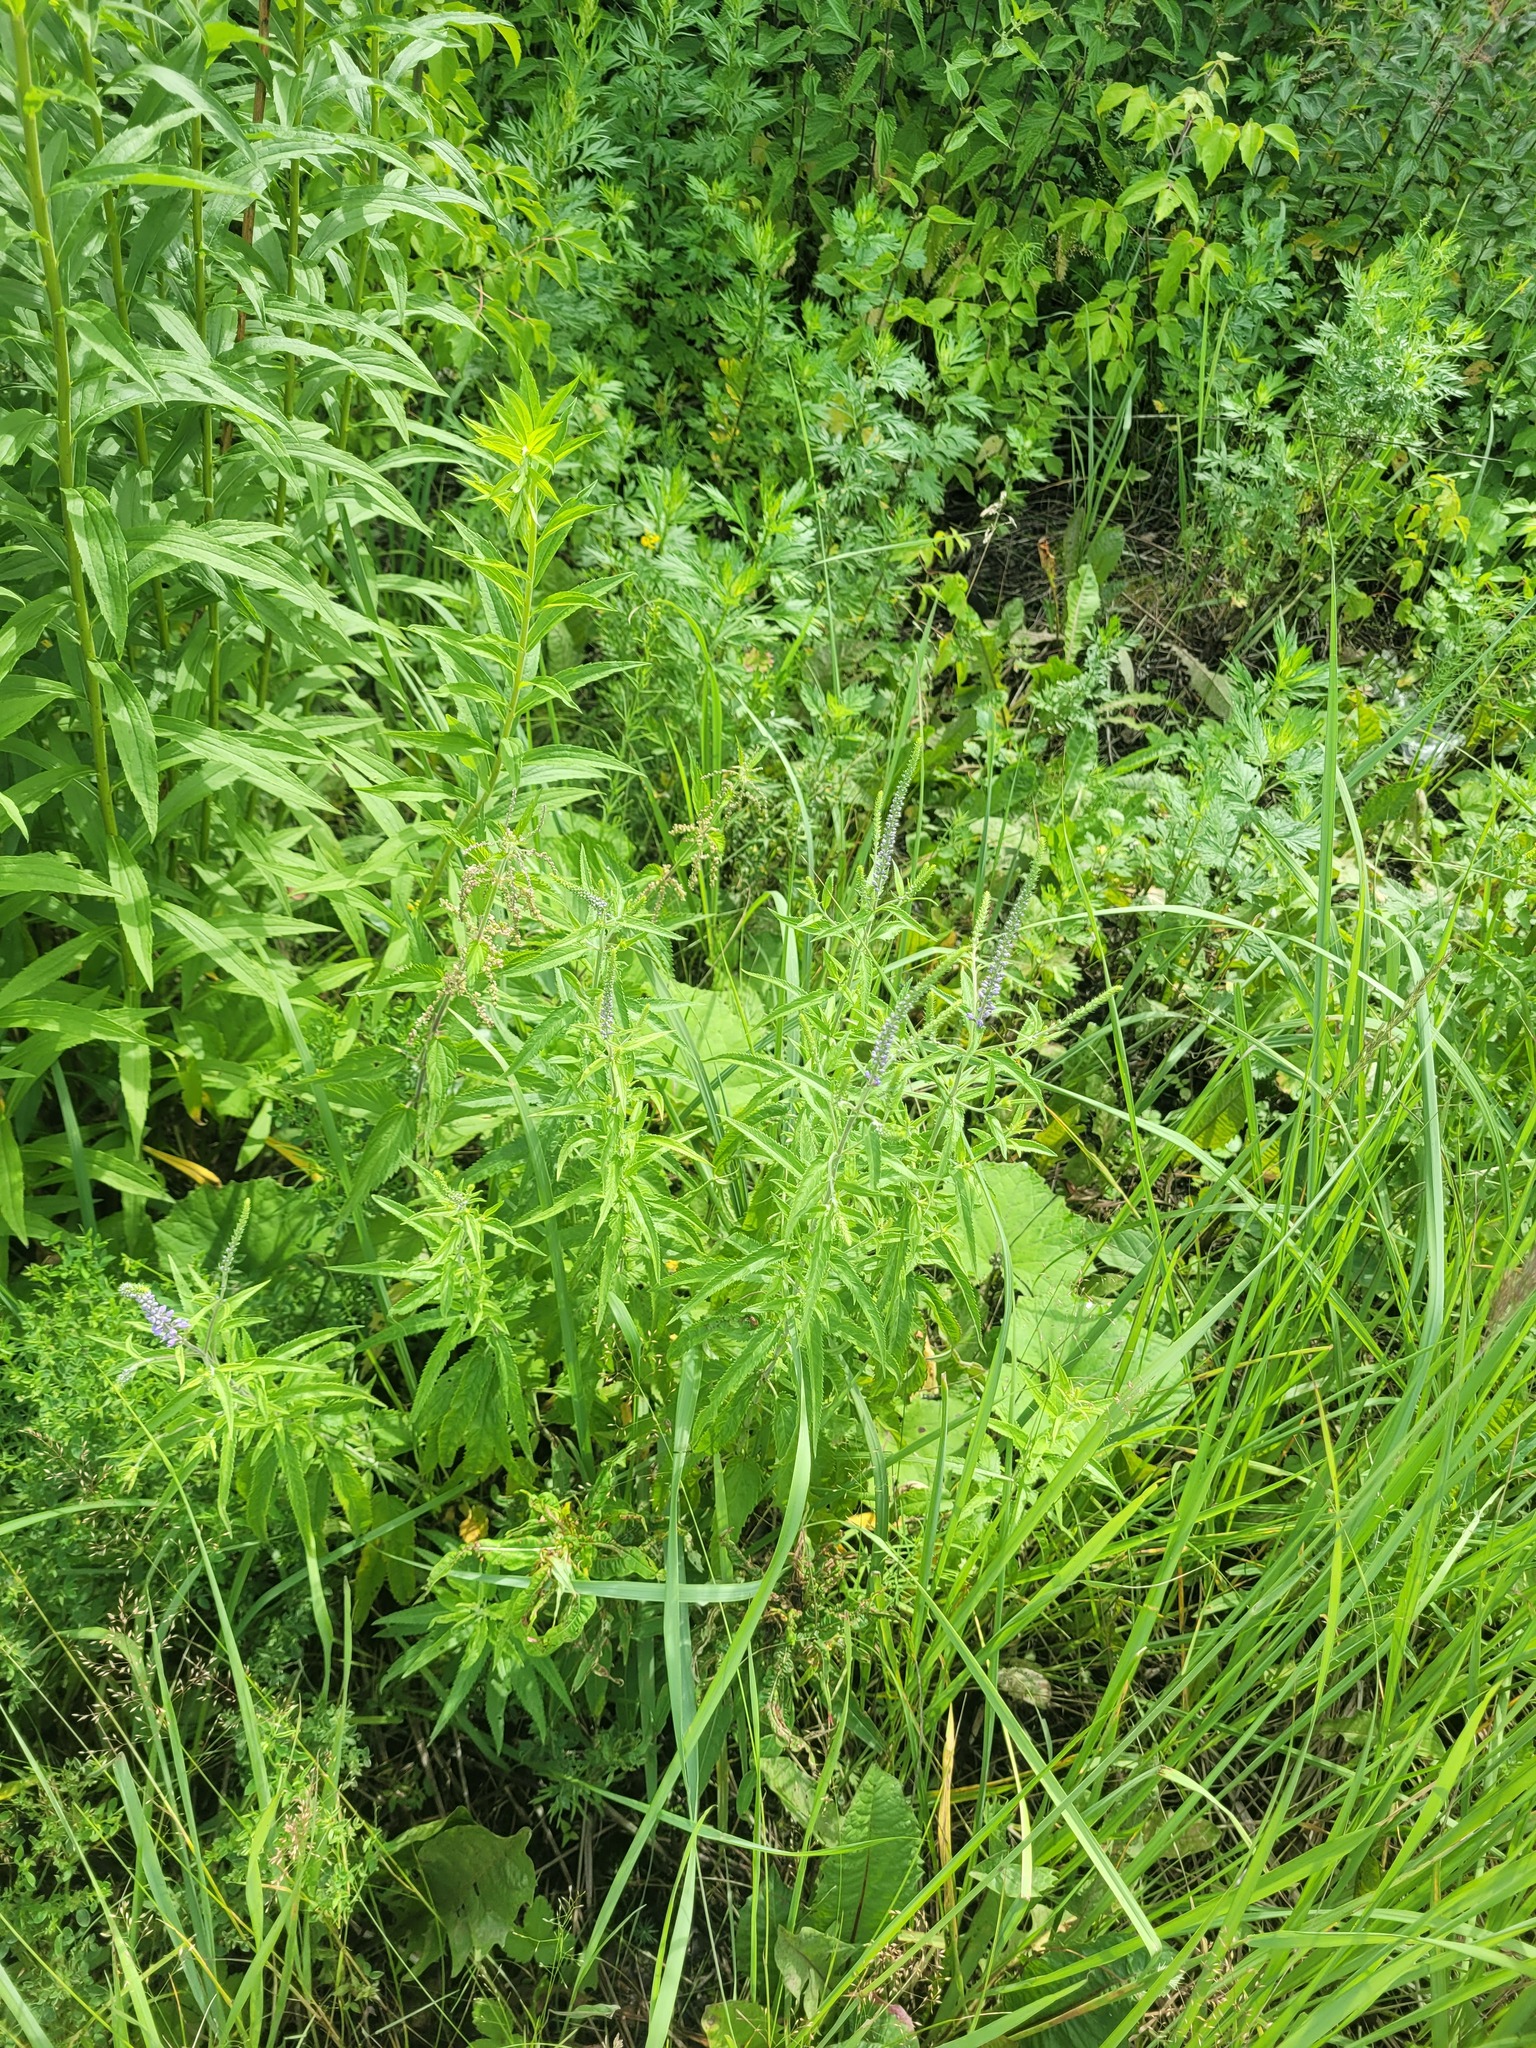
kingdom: Plantae
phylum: Tracheophyta
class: Magnoliopsida
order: Lamiales
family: Plantaginaceae
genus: Veronica
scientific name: Veronica longifolia
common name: Garden speedwell
